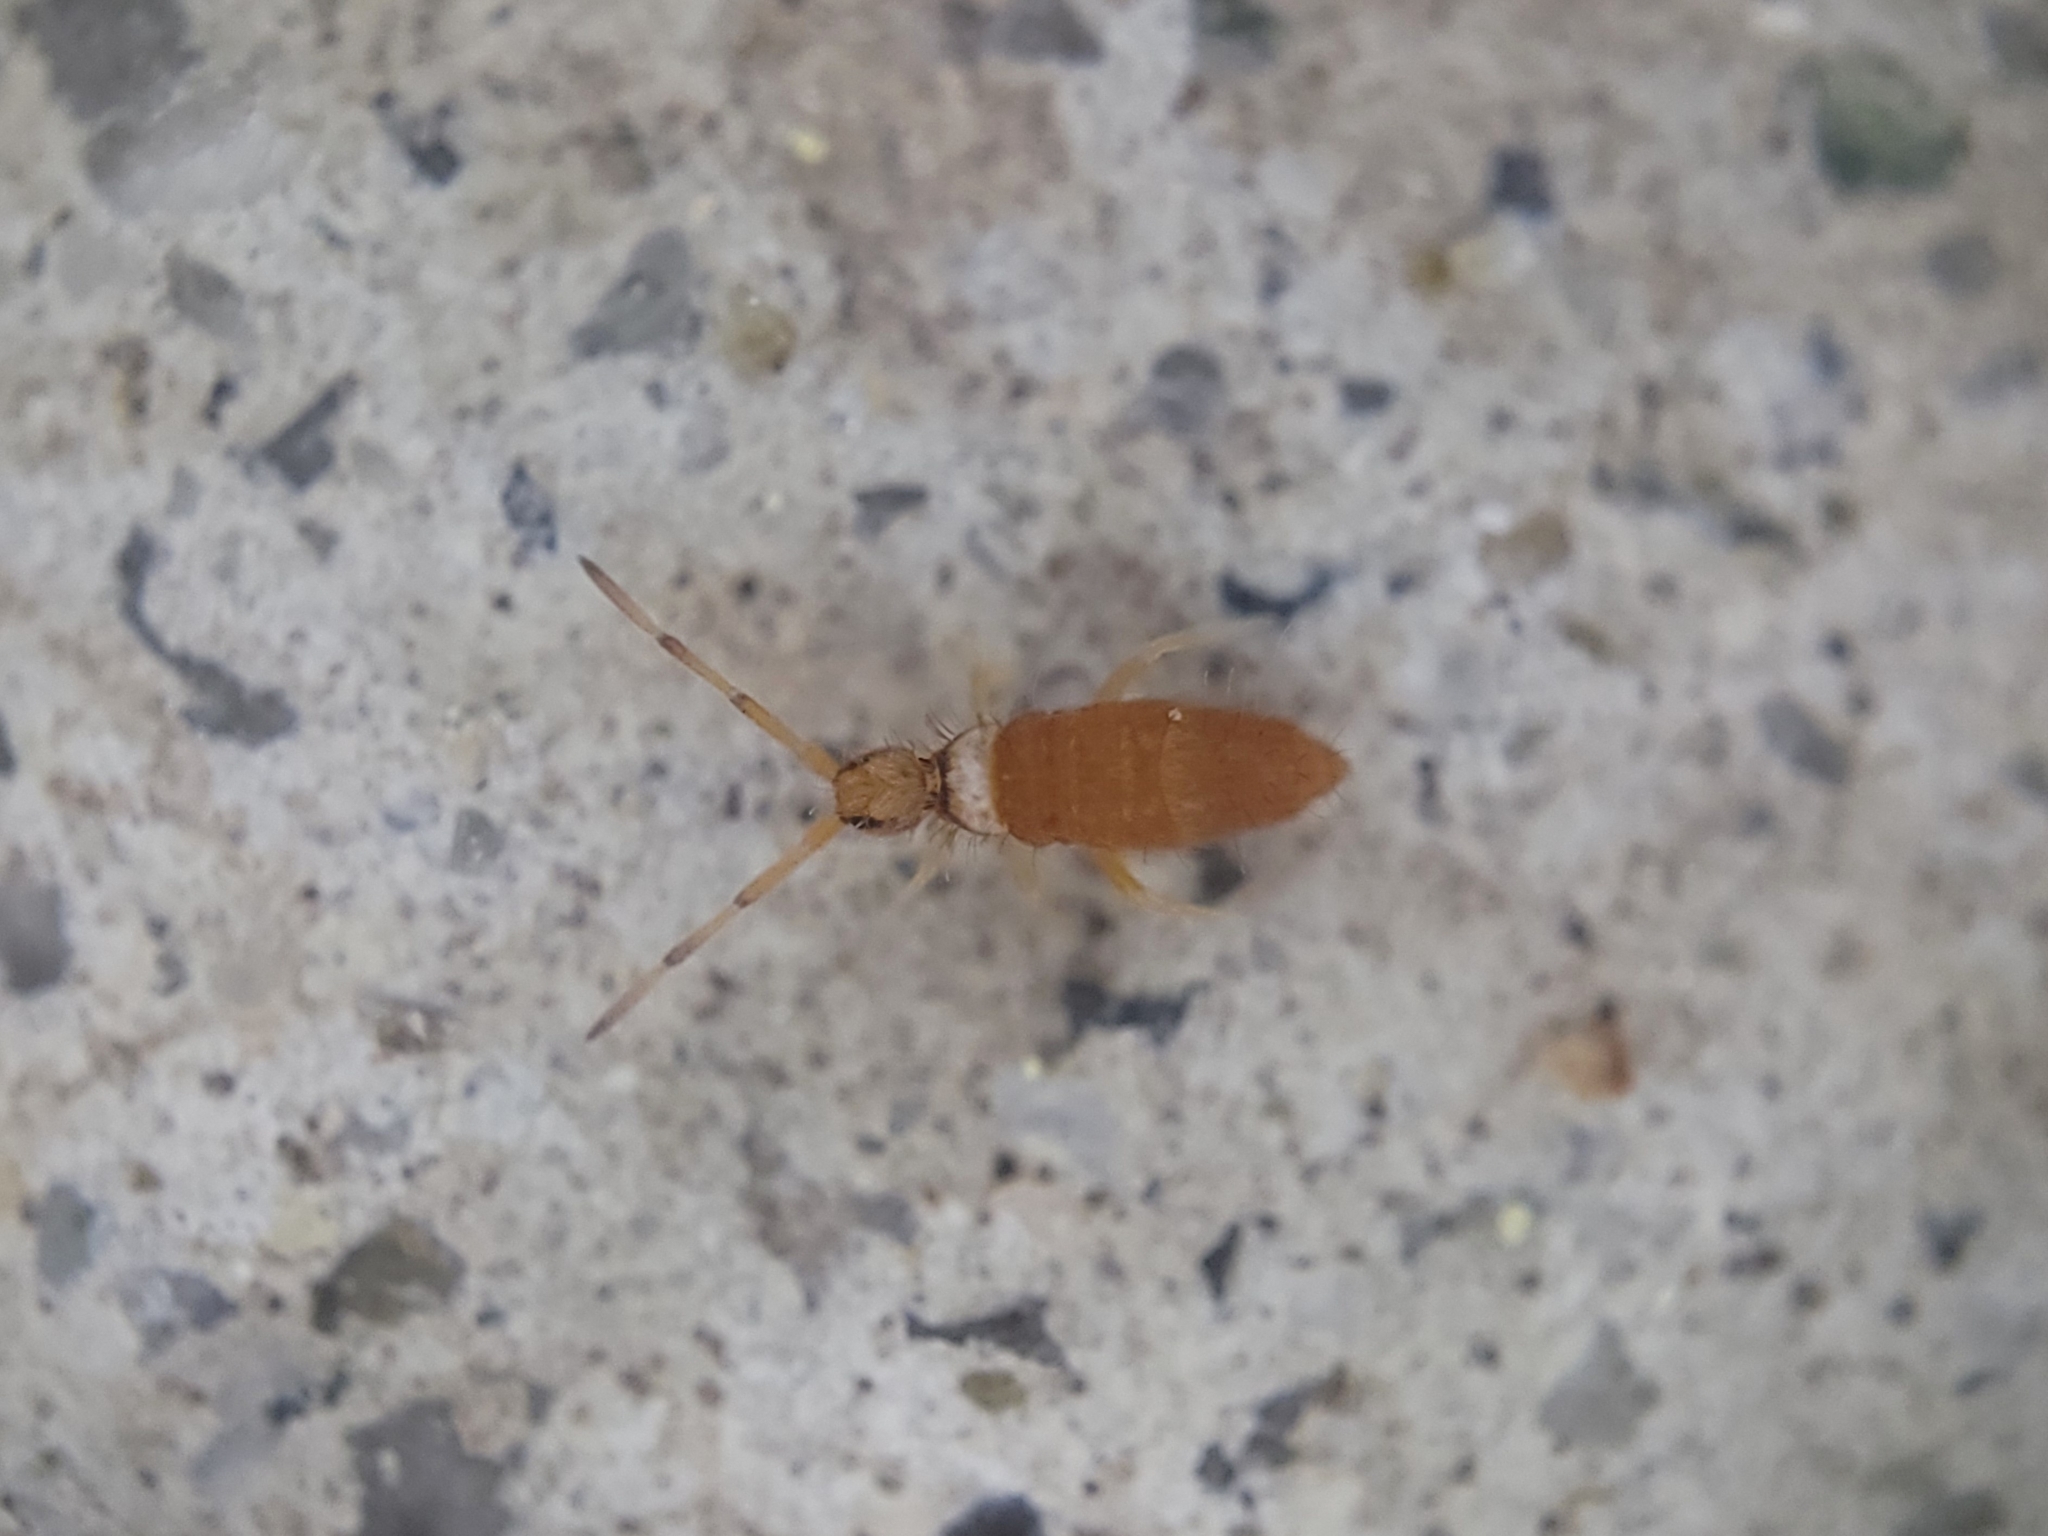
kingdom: Animalia
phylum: Arthropoda
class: Collembola
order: Entomobryomorpha
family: Entomobryidae
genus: Entomobrya
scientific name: Entomobrya atrocincta
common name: Springtail
